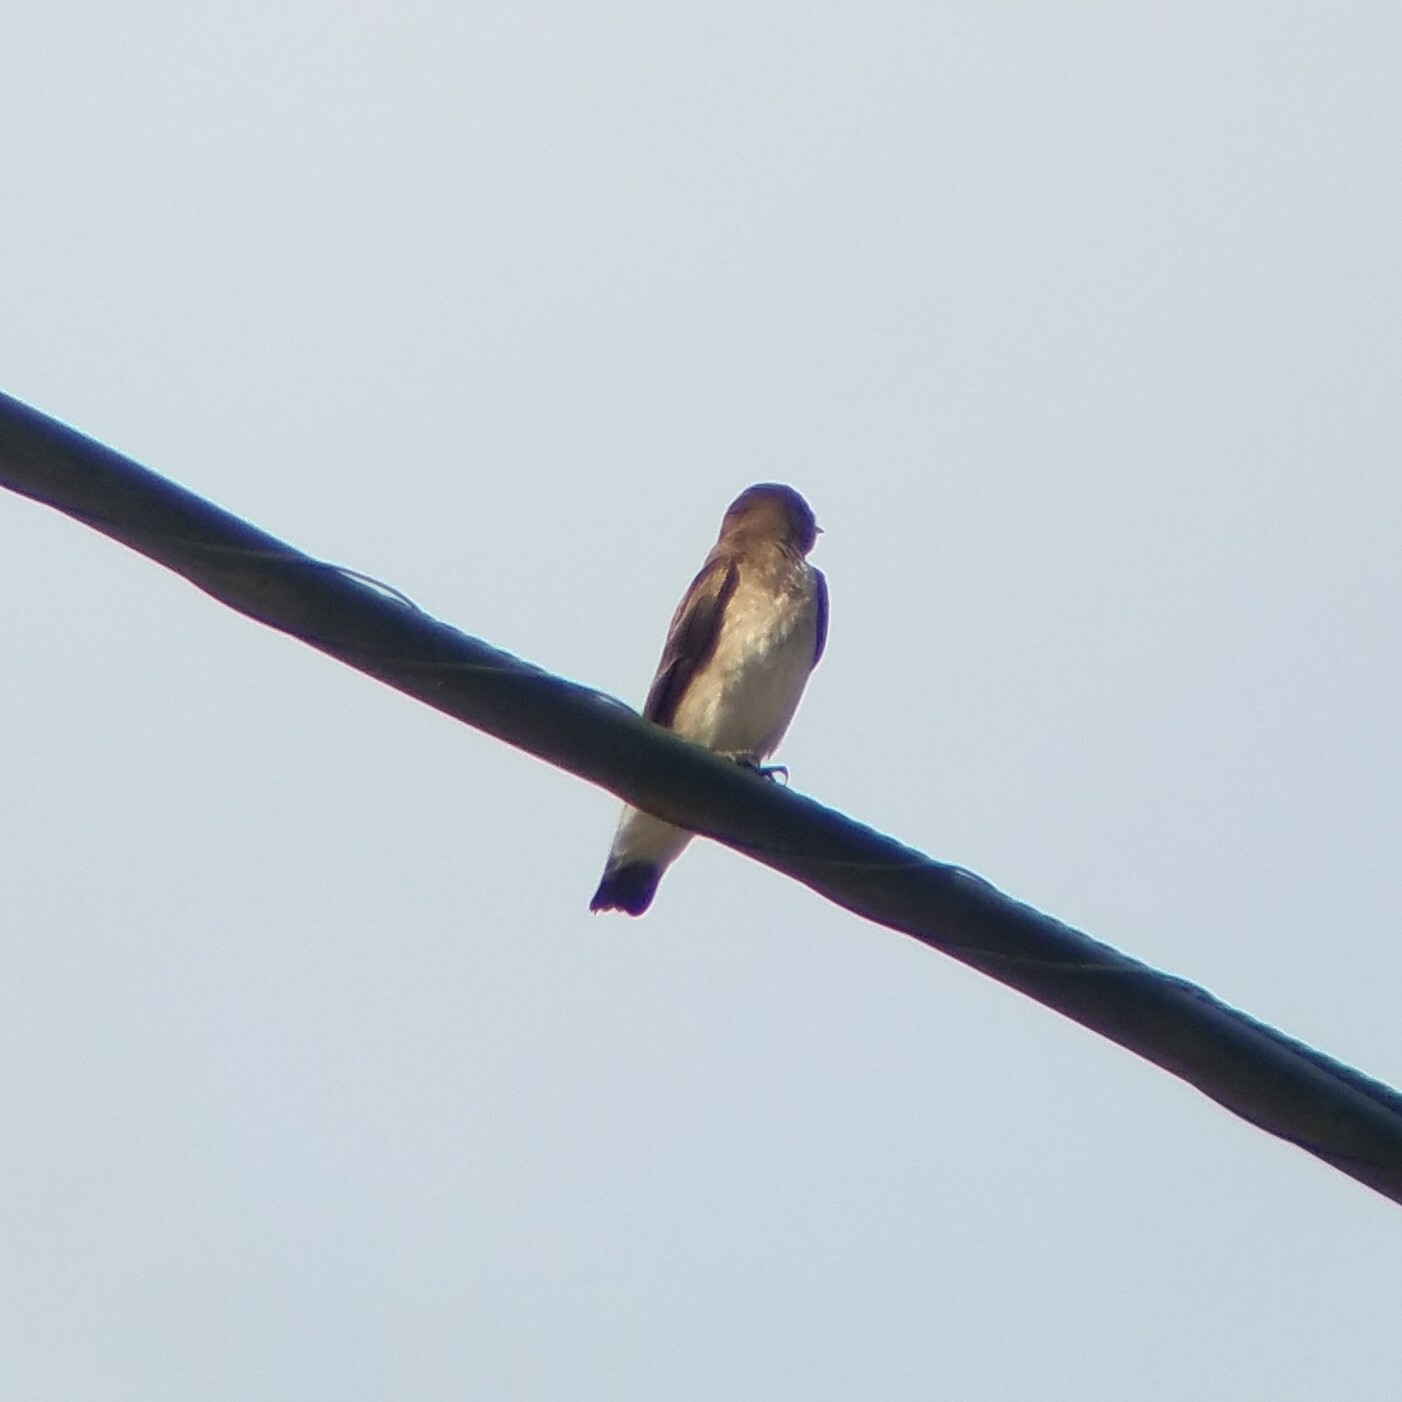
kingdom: Animalia
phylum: Chordata
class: Aves
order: Passeriformes
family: Hirundinidae
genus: Stelgidopteryx
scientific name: Stelgidopteryx serripennis
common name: Northern rough-winged swallow
